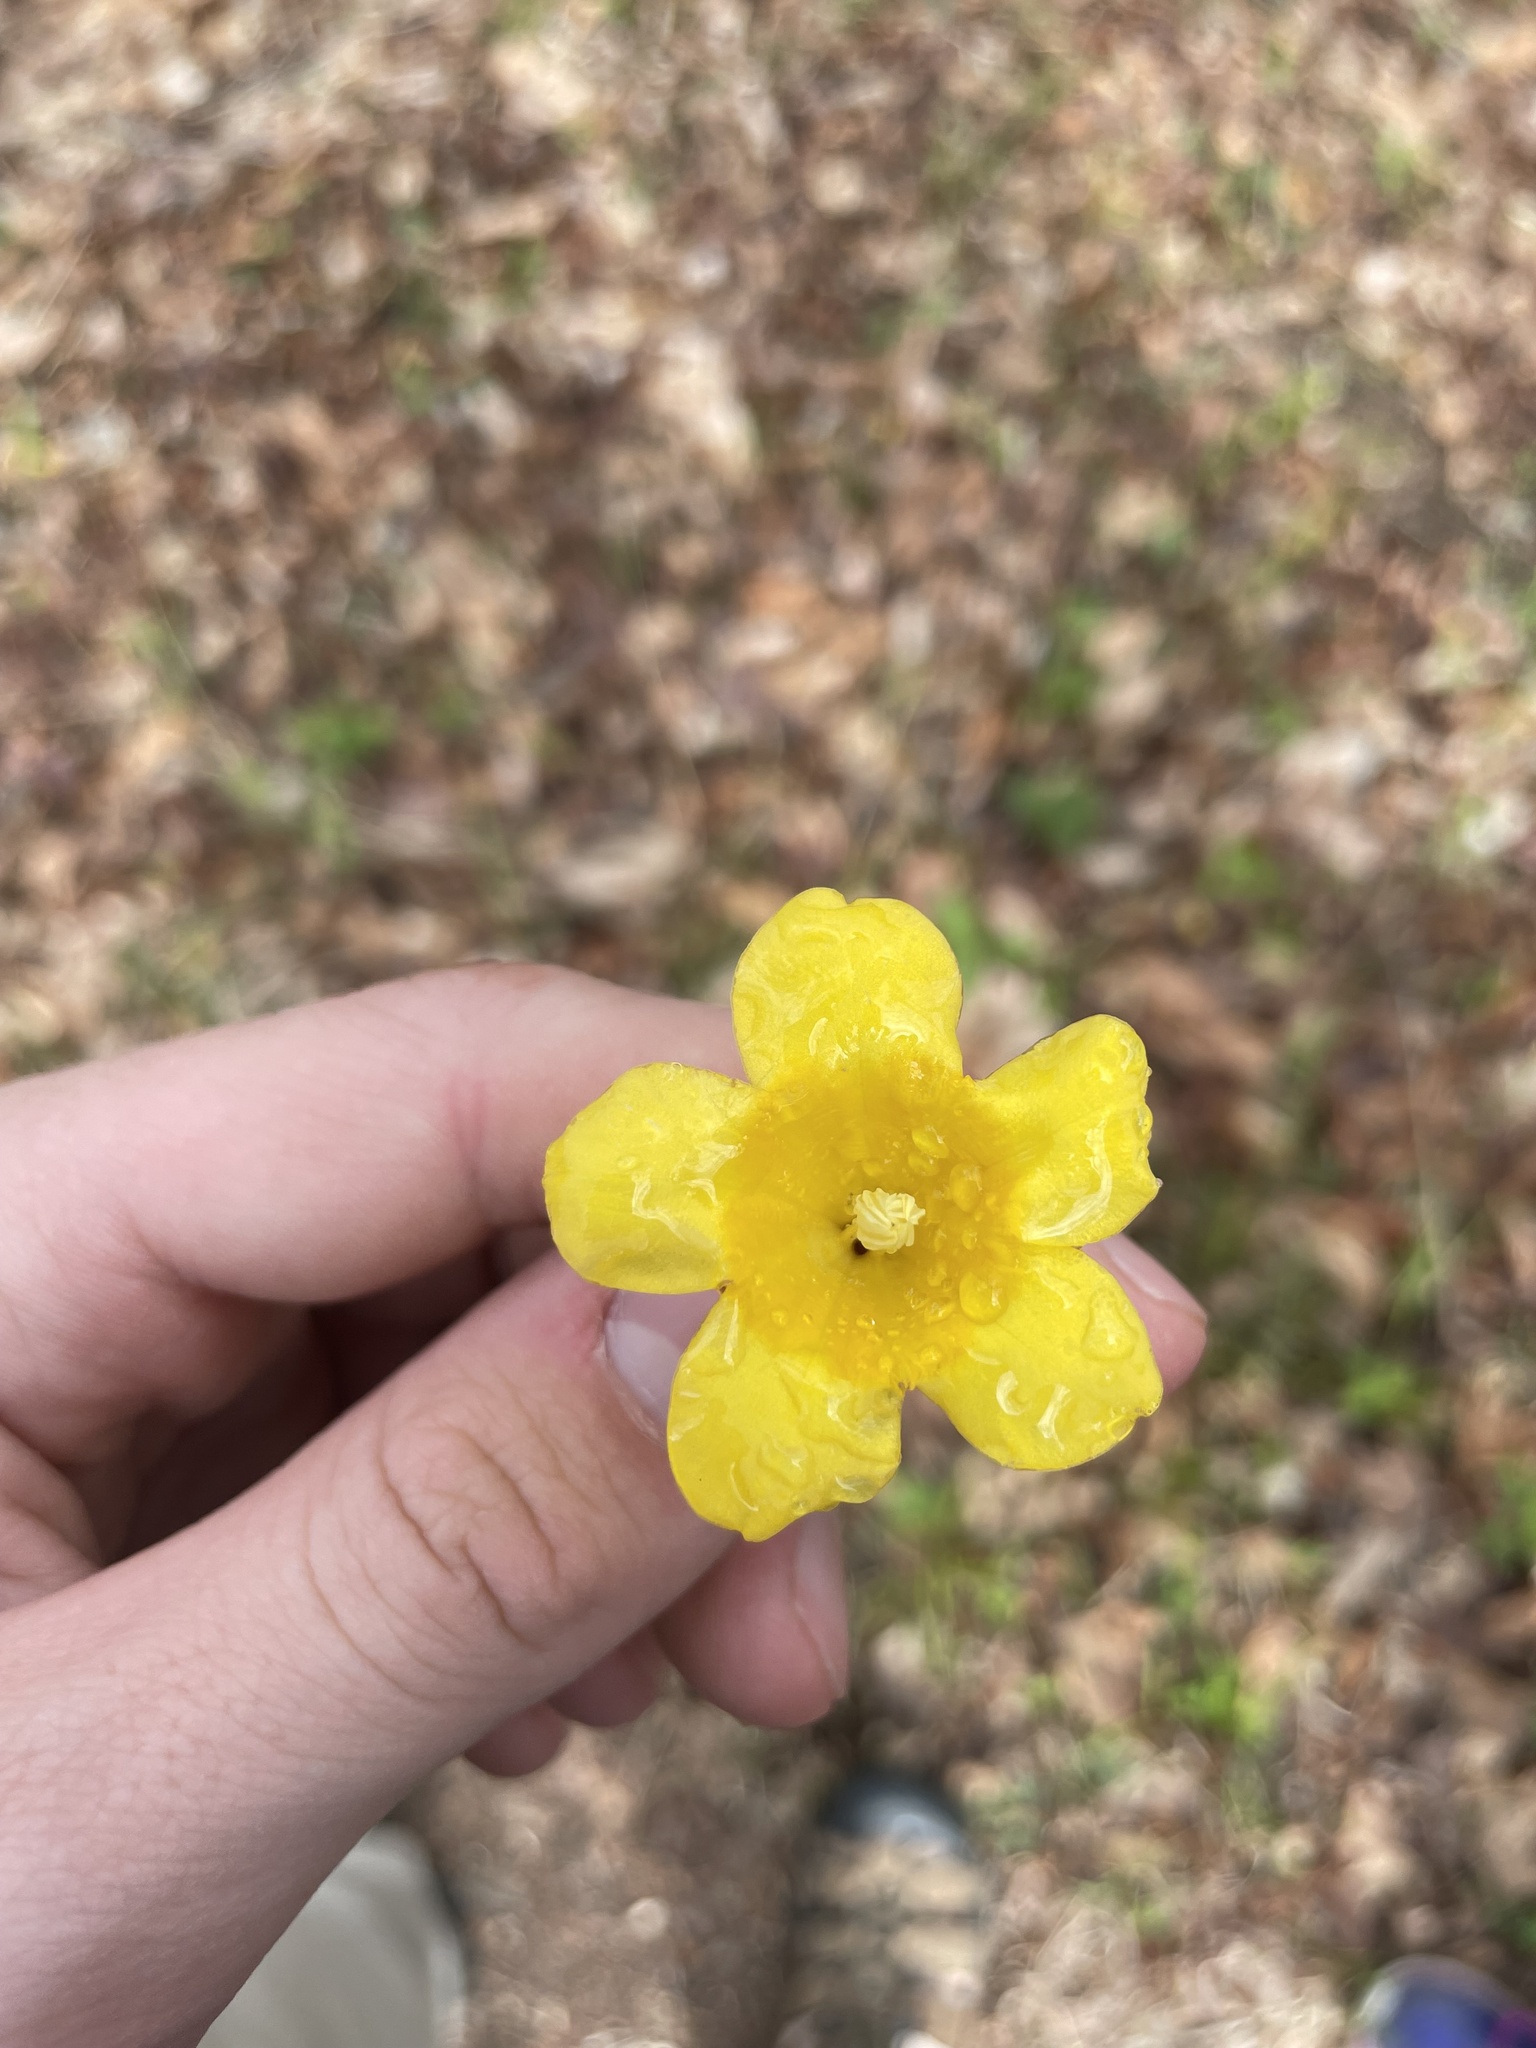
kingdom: Plantae
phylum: Tracheophyta
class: Magnoliopsida
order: Gentianales
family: Gelsemiaceae
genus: Gelsemium
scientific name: Gelsemium sempervirens
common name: Carolina-jasmine
